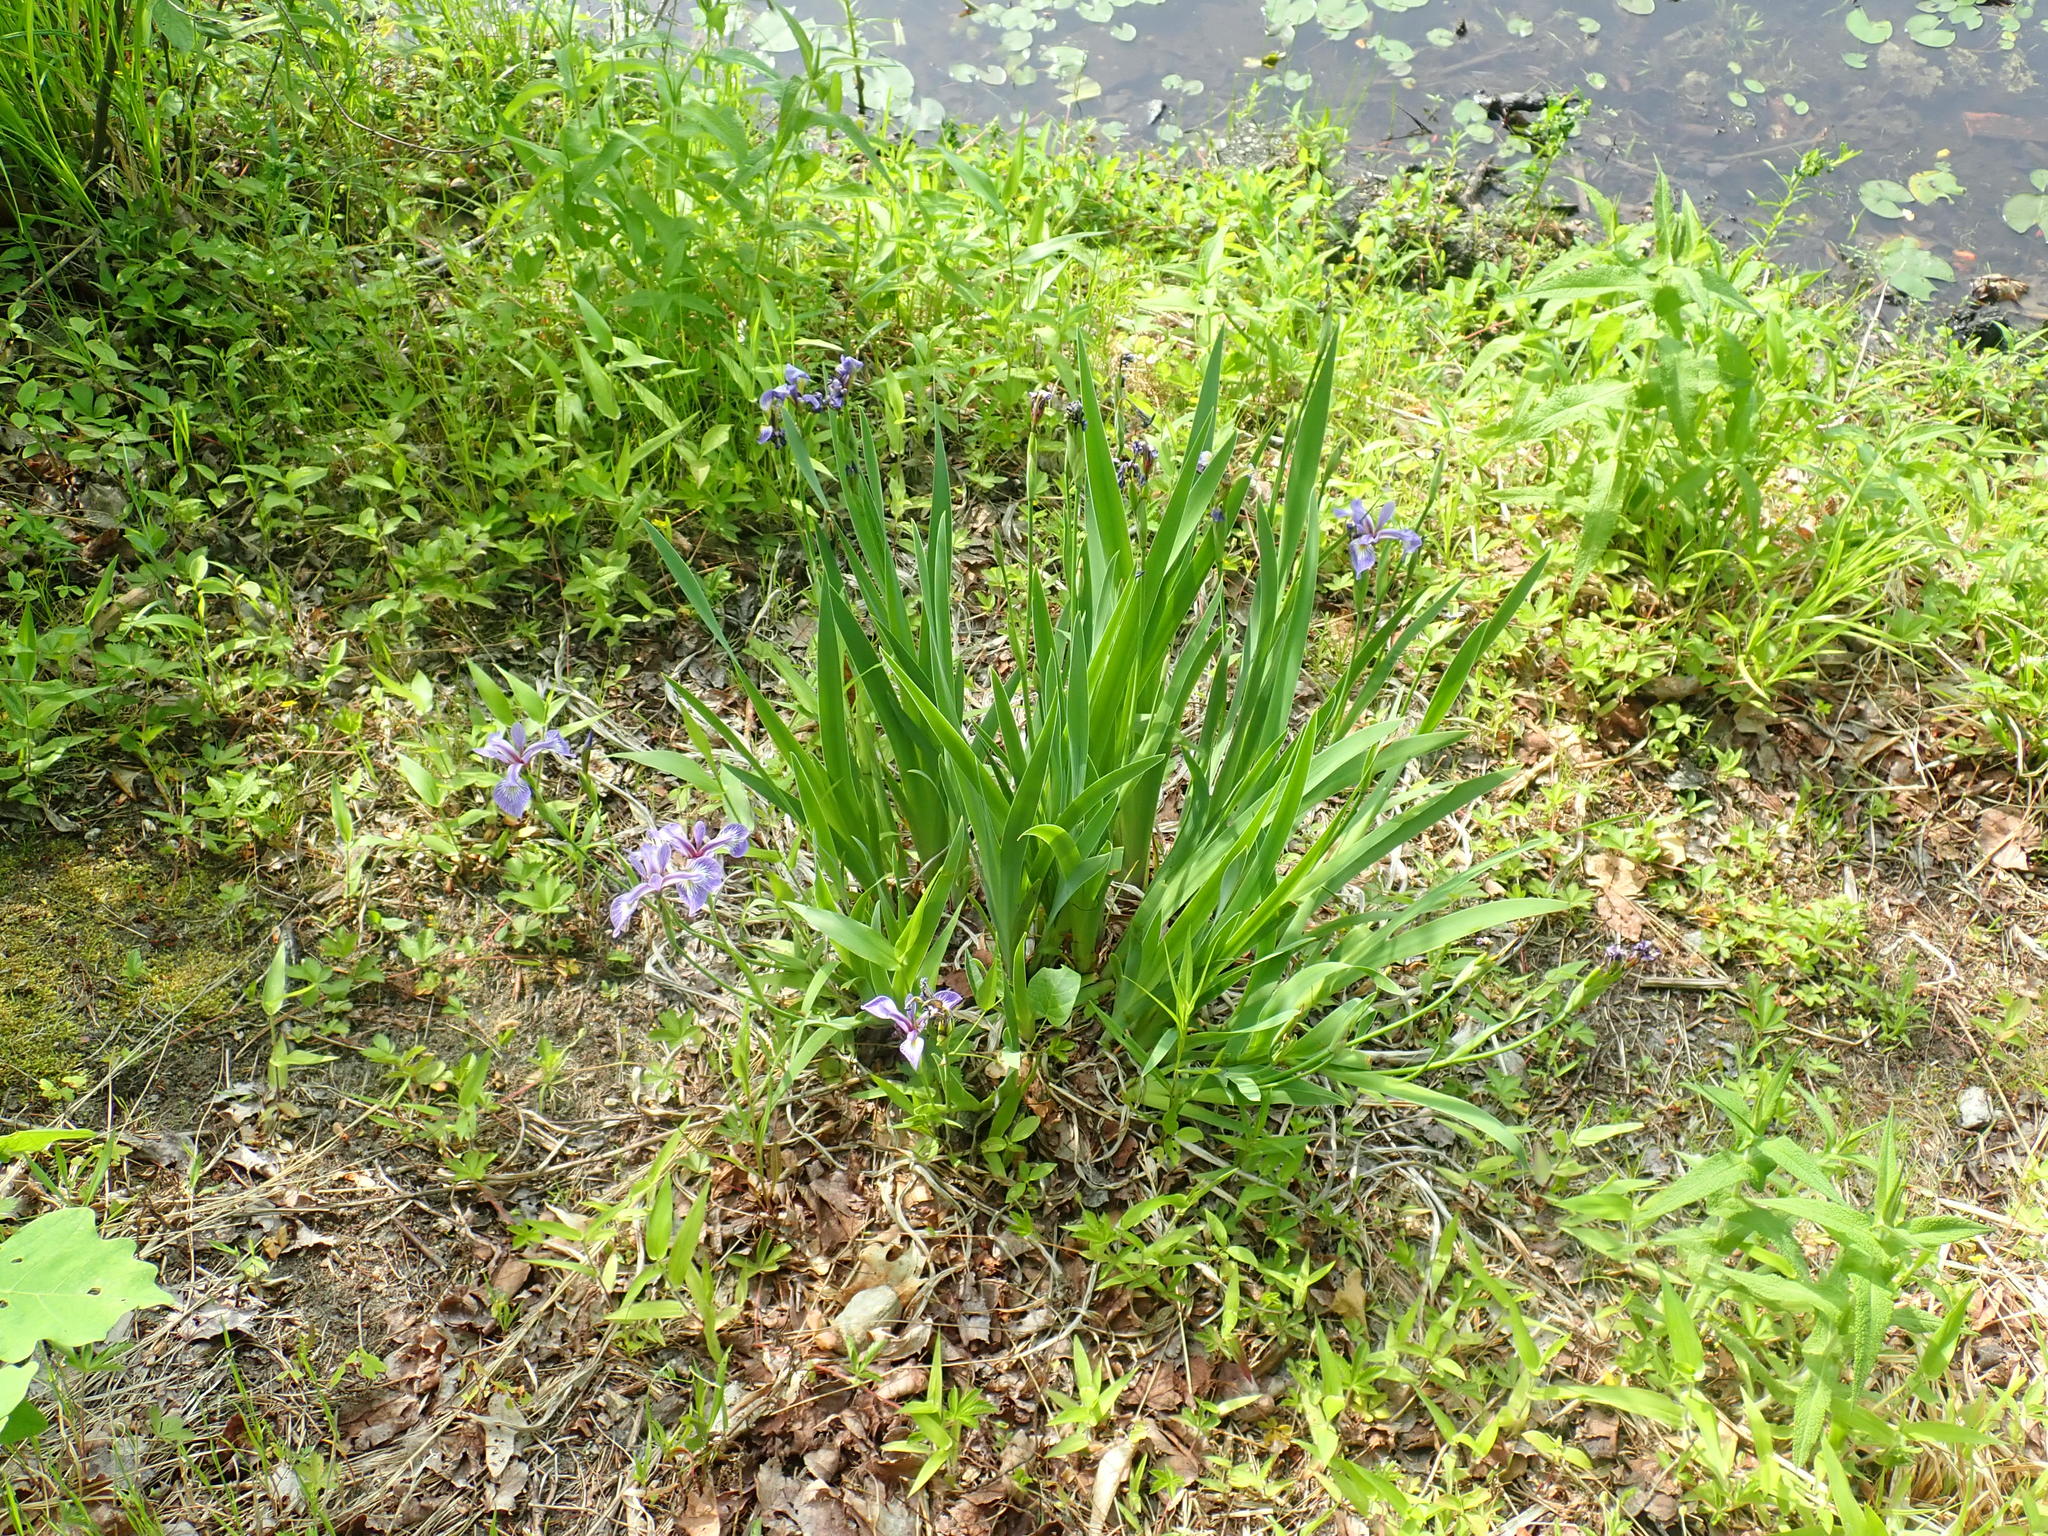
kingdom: Plantae
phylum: Tracheophyta
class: Liliopsida
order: Asparagales
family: Iridaceae
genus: Iris
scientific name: Iris versicolor
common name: Purple iris
